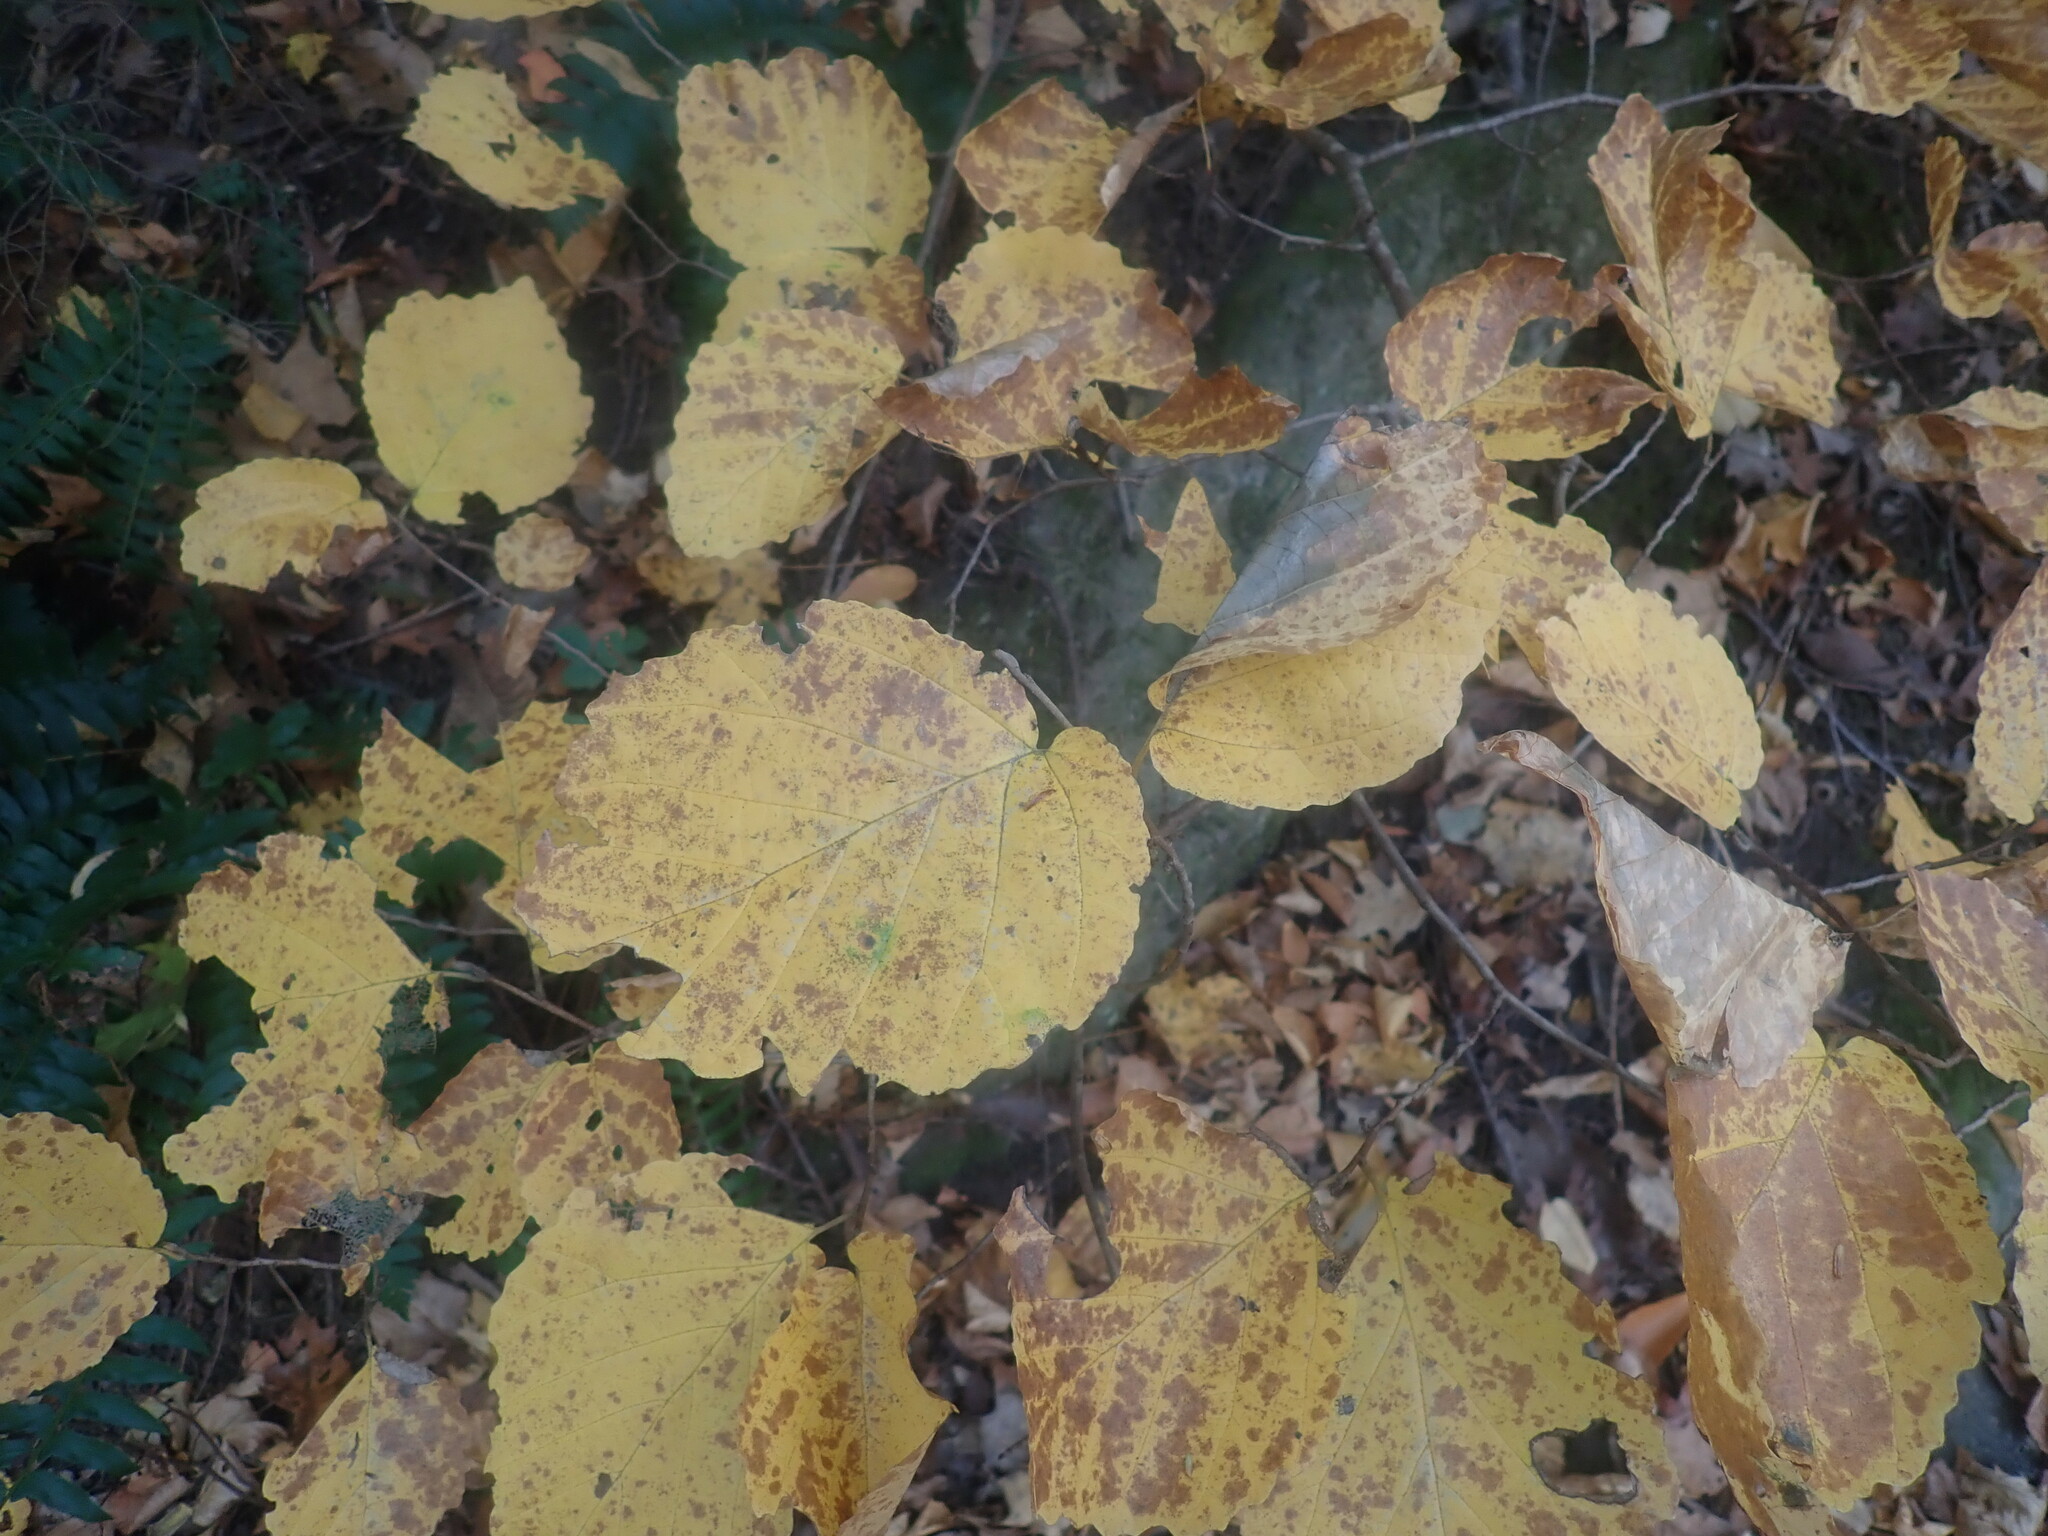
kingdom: Plantae
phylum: Tracheophyta
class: Magnoliopsida
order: Saxifragales
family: Hamamelidaceae
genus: Hamamelis
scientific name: Hamamelis virginiana
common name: Witch-hazel
